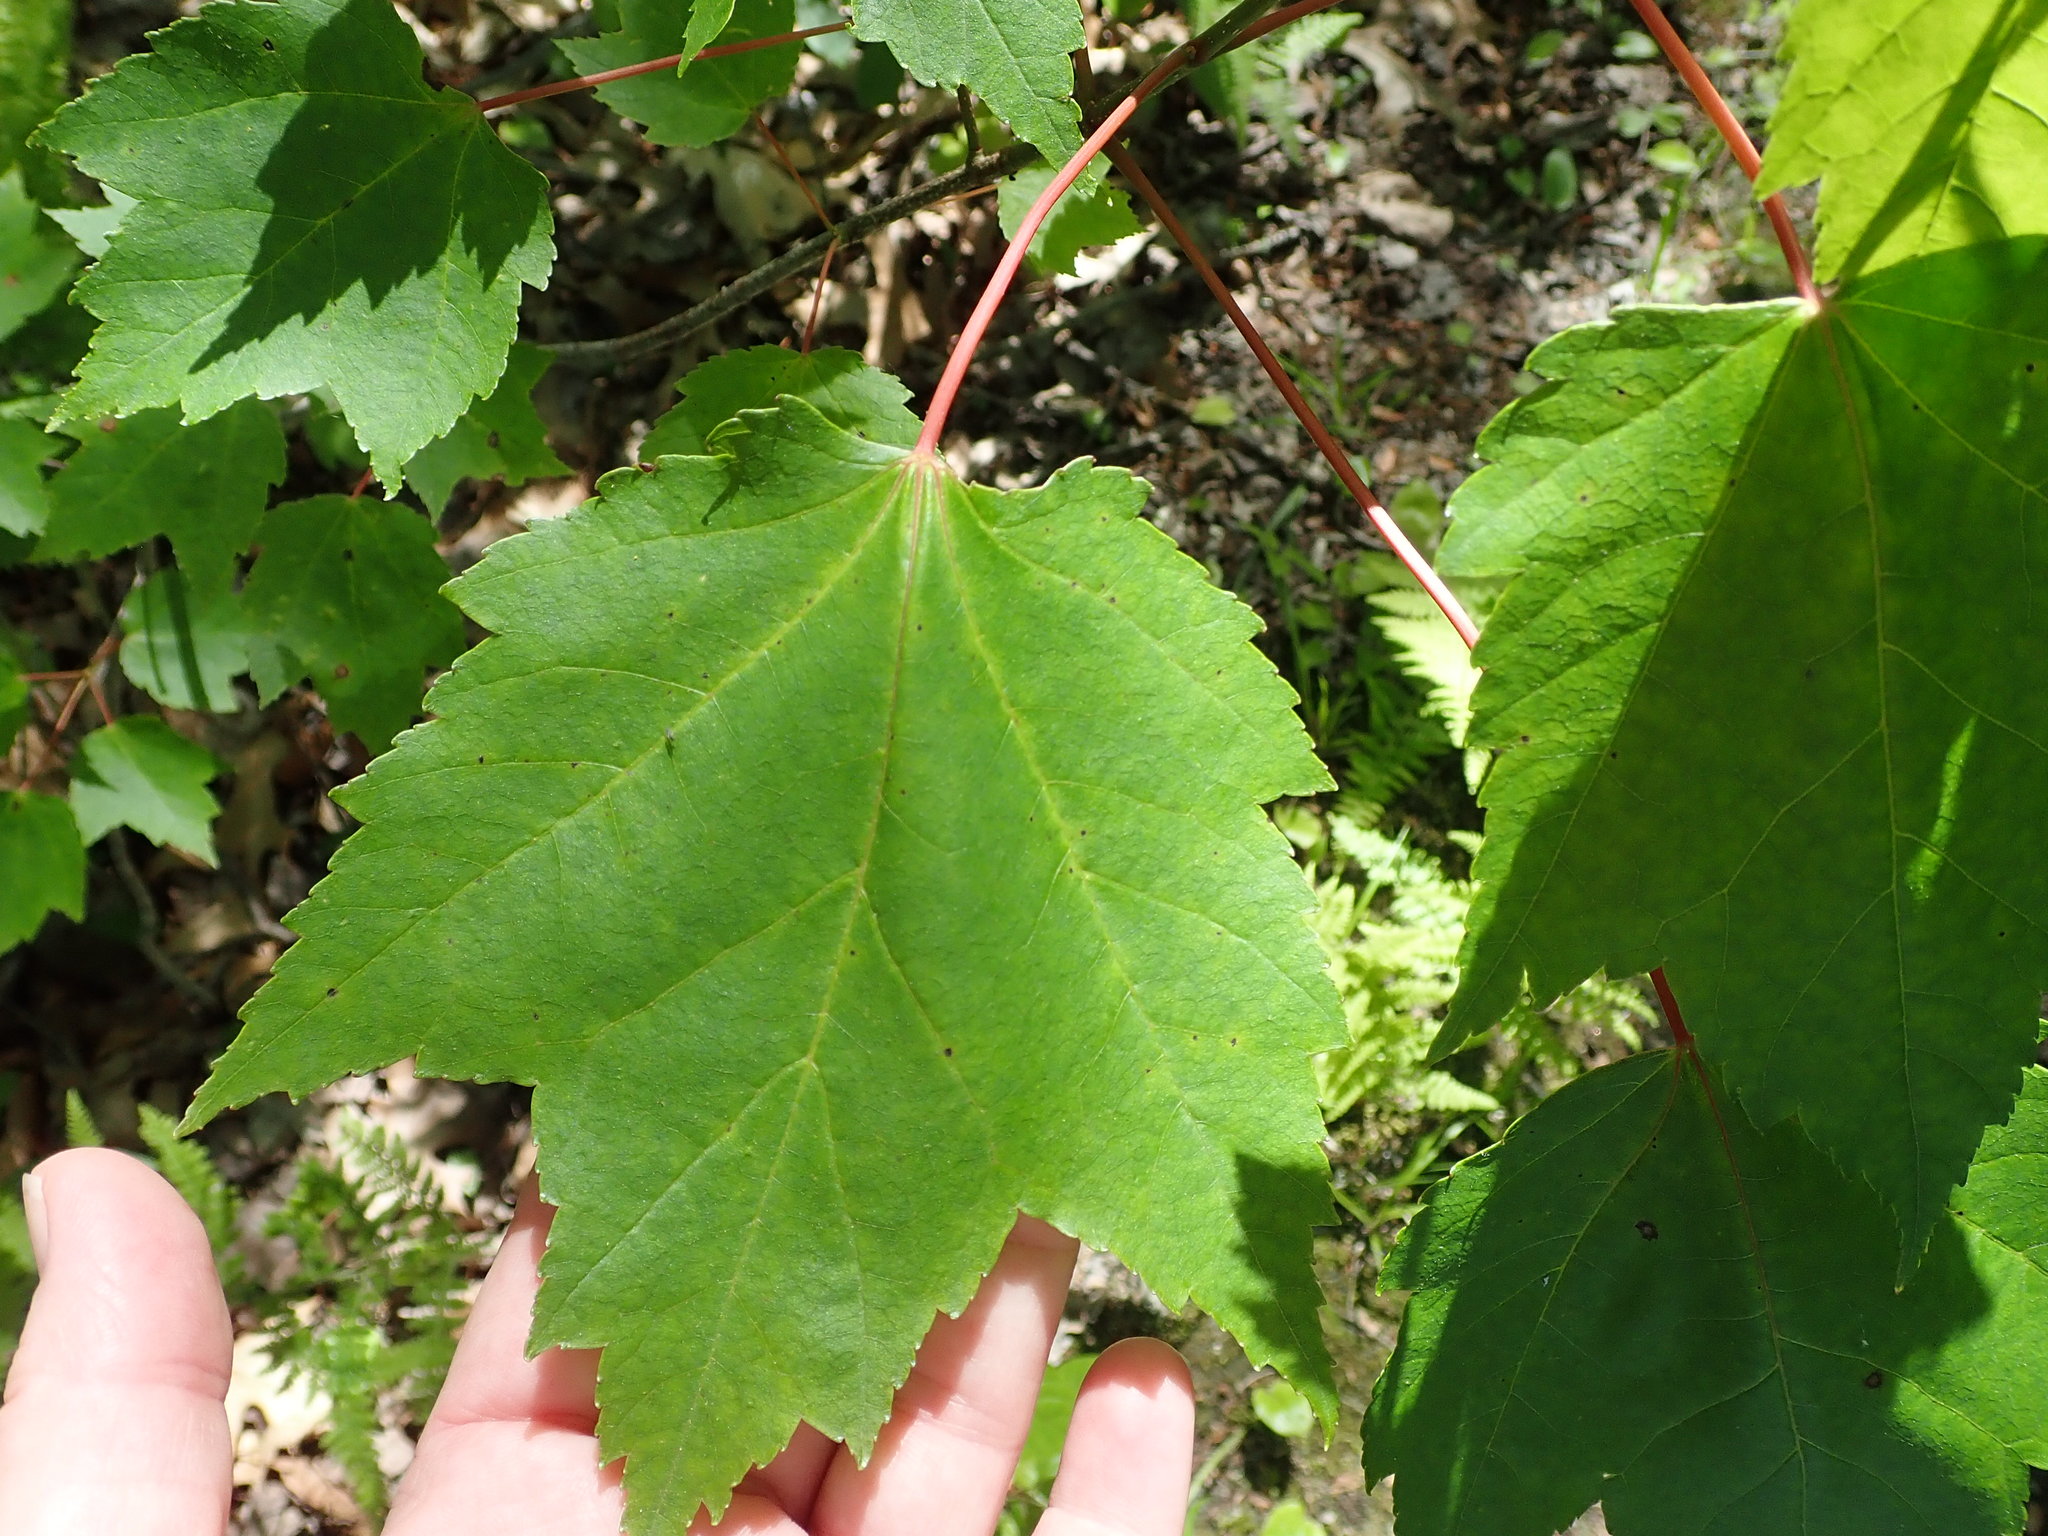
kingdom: Plantae
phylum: Tracheophyta
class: Magnoliopsida
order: Sapindales
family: Sapindaceae
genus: Acer
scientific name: Acer rubrum
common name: Red maple
